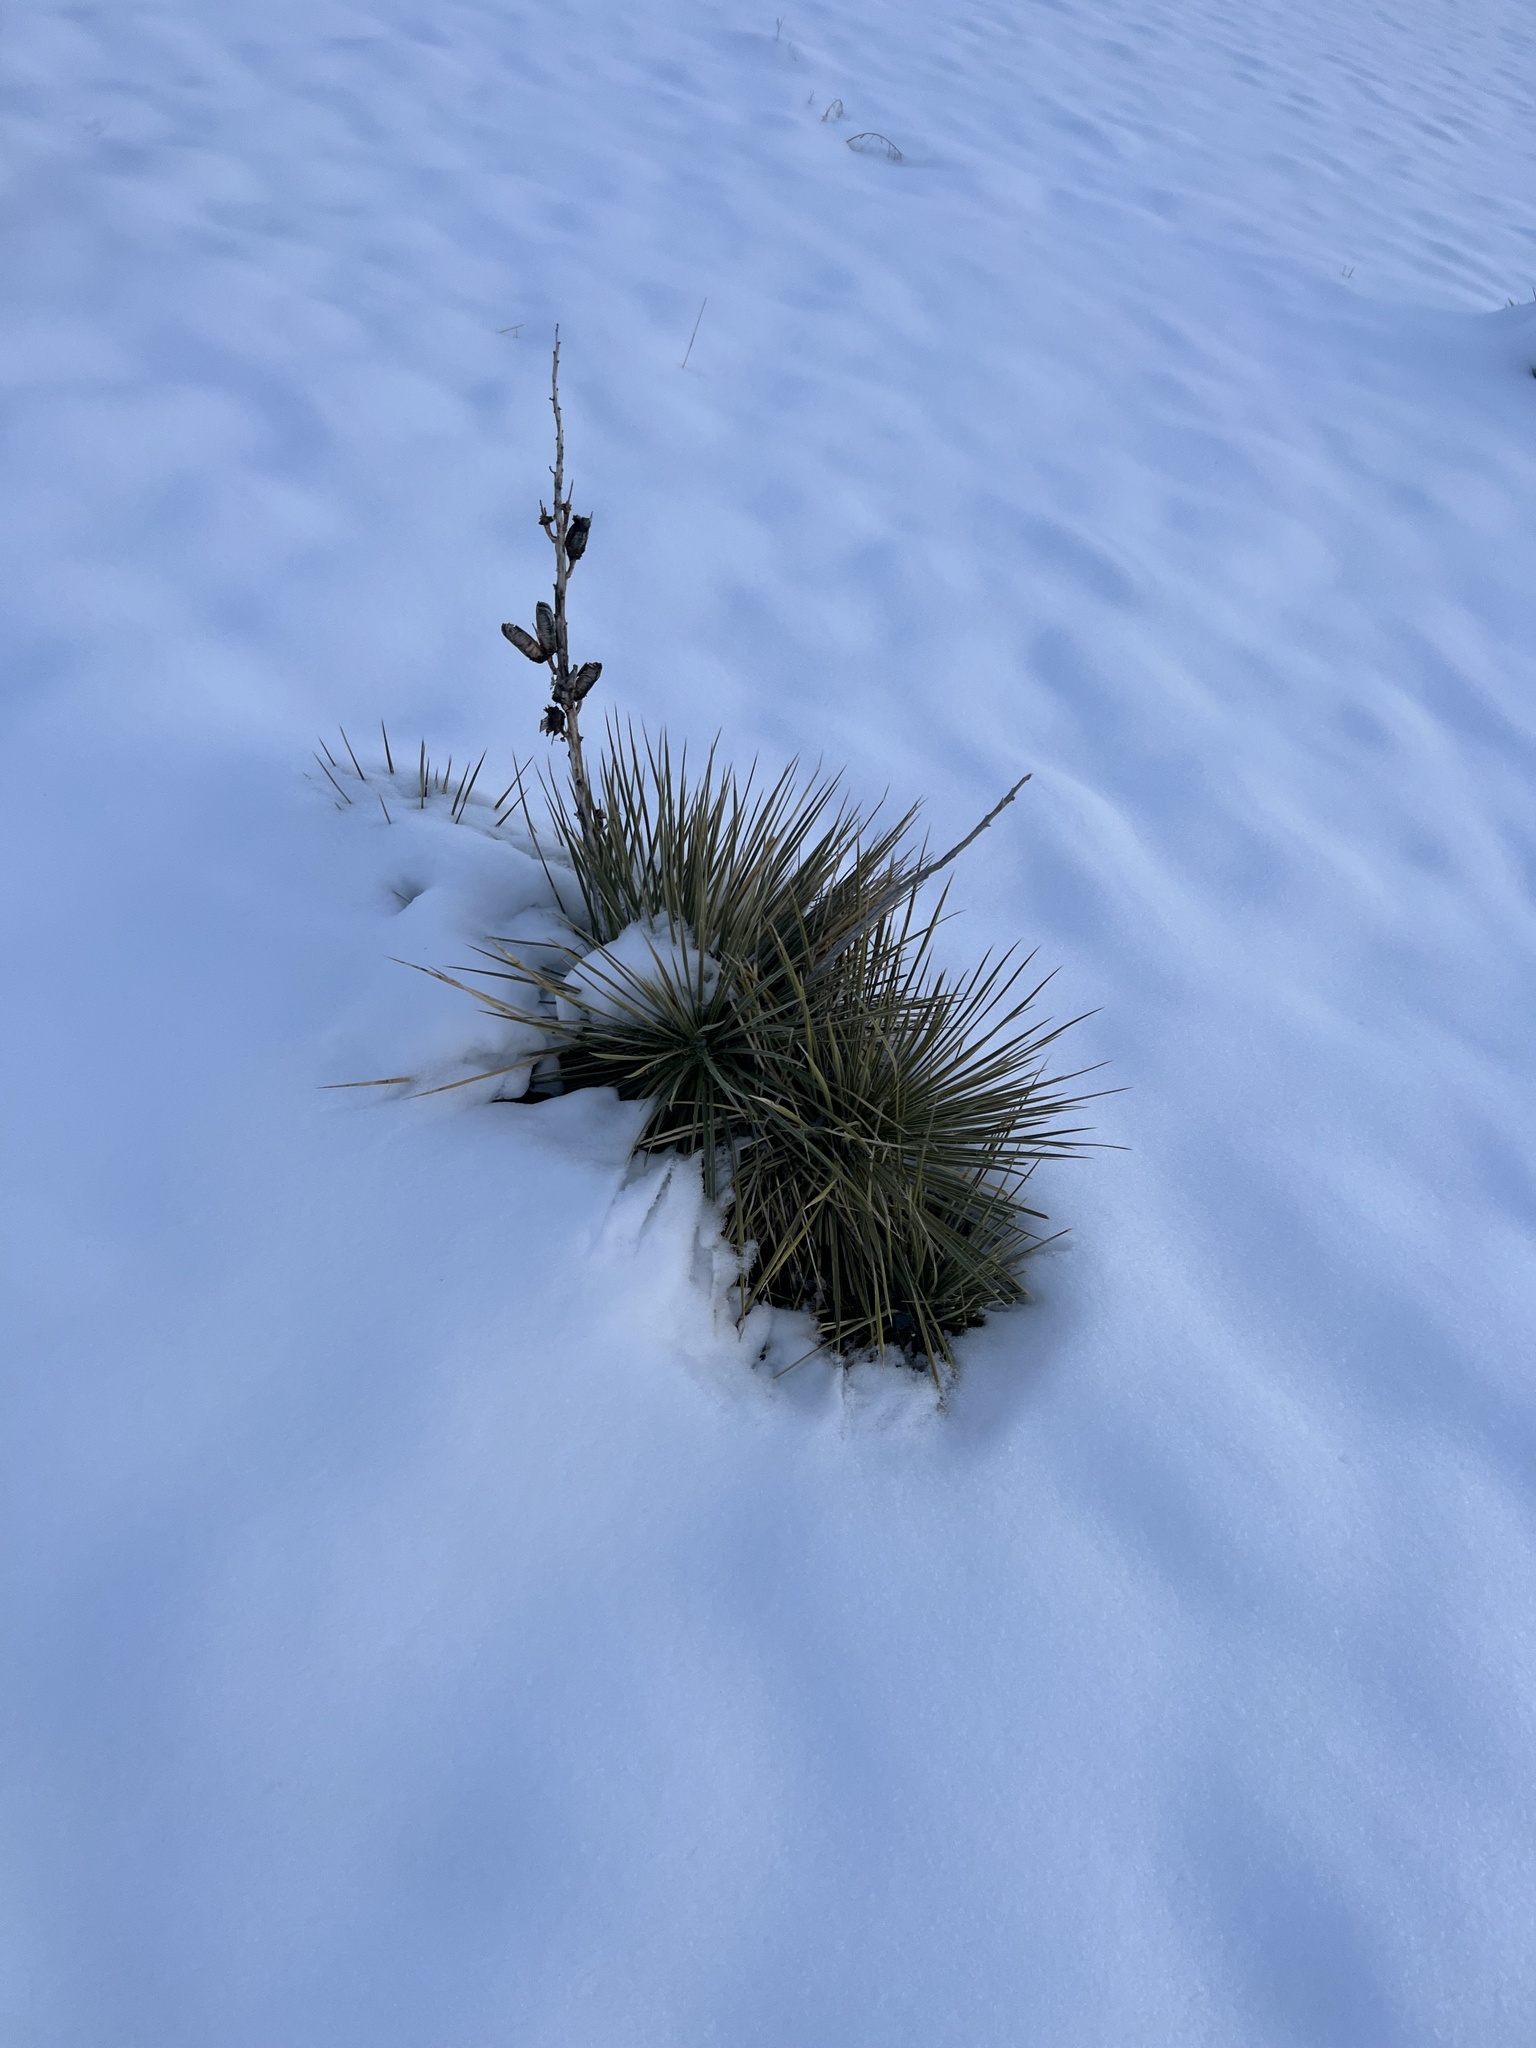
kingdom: Plantae
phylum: Tracheophyta
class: Liliopsida
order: Asparagales
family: Asparagaceae
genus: Yucca
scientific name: Yucca glauca
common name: Great plains yucca
